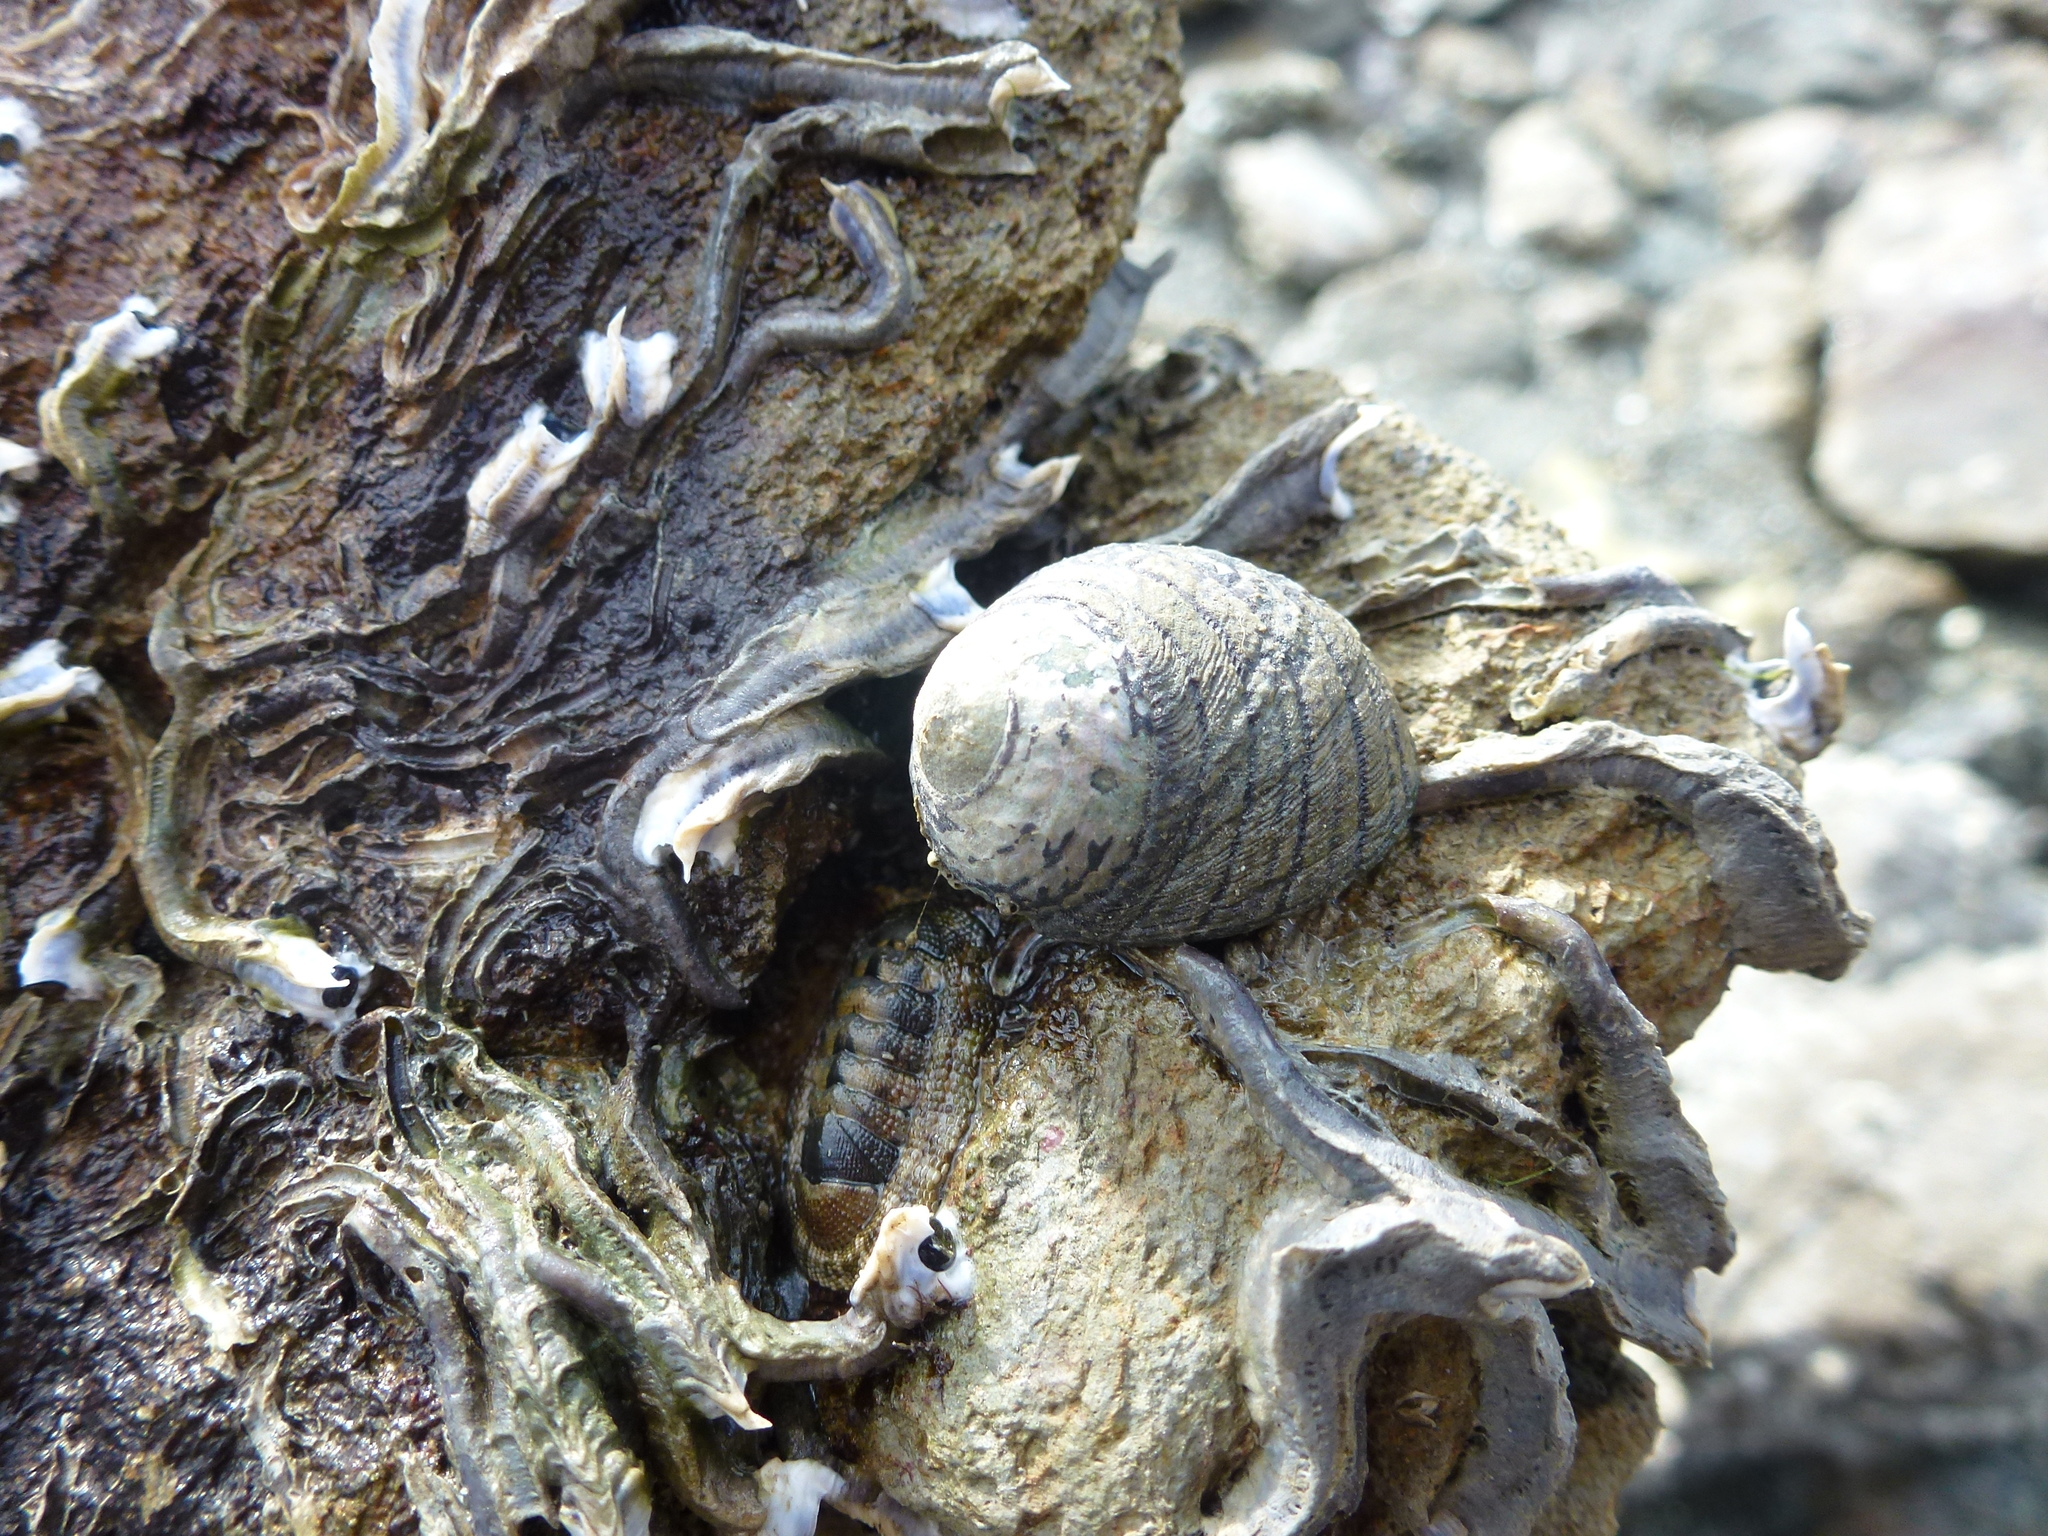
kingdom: Animalia
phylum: Mollusca
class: Gastropoda
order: Trochida
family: Trochidae
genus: Diloma
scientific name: Diloma aethiops
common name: Scorched monodont
